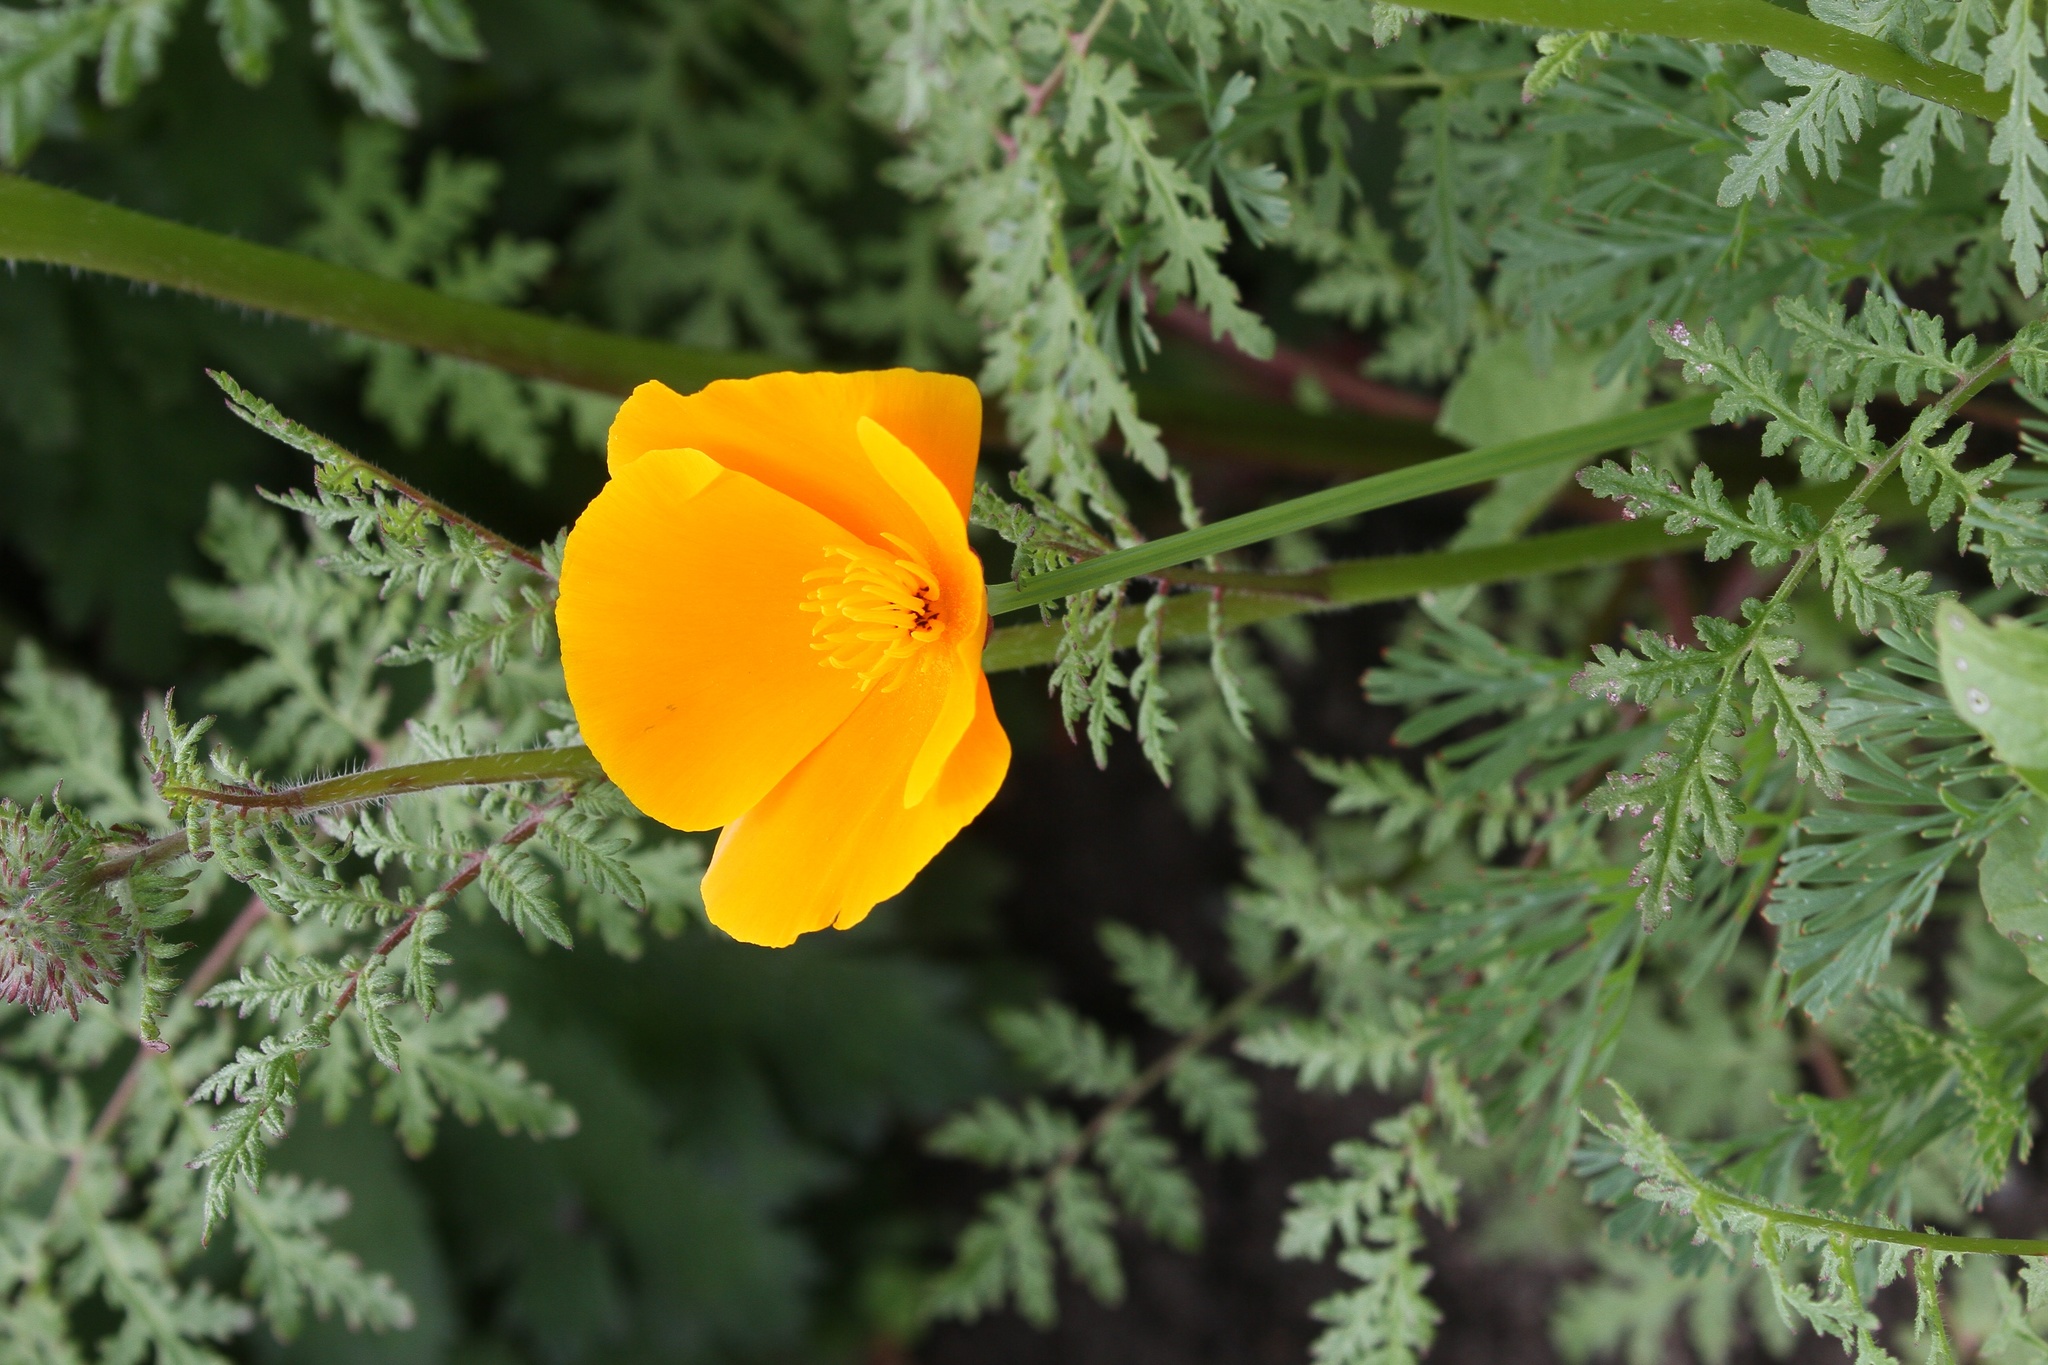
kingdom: Plantae
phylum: Tracheophyta
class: Magnoliopsida
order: Ranunculales
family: Papaveraceae
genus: Eschscholzia
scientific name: Eschscholzia californica
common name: California poppy
